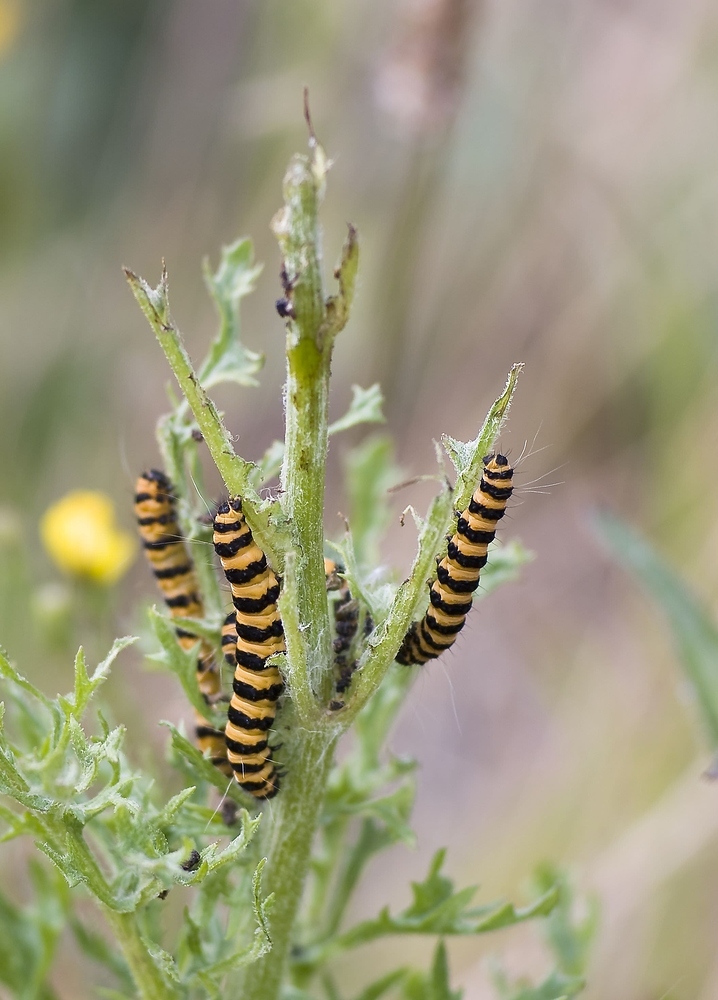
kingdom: Animalia
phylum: Arthropoda
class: Insecta
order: Lepidoptera
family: Erebidae
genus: Tyria
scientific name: Tyria jacobaeae
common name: Cinnabar
